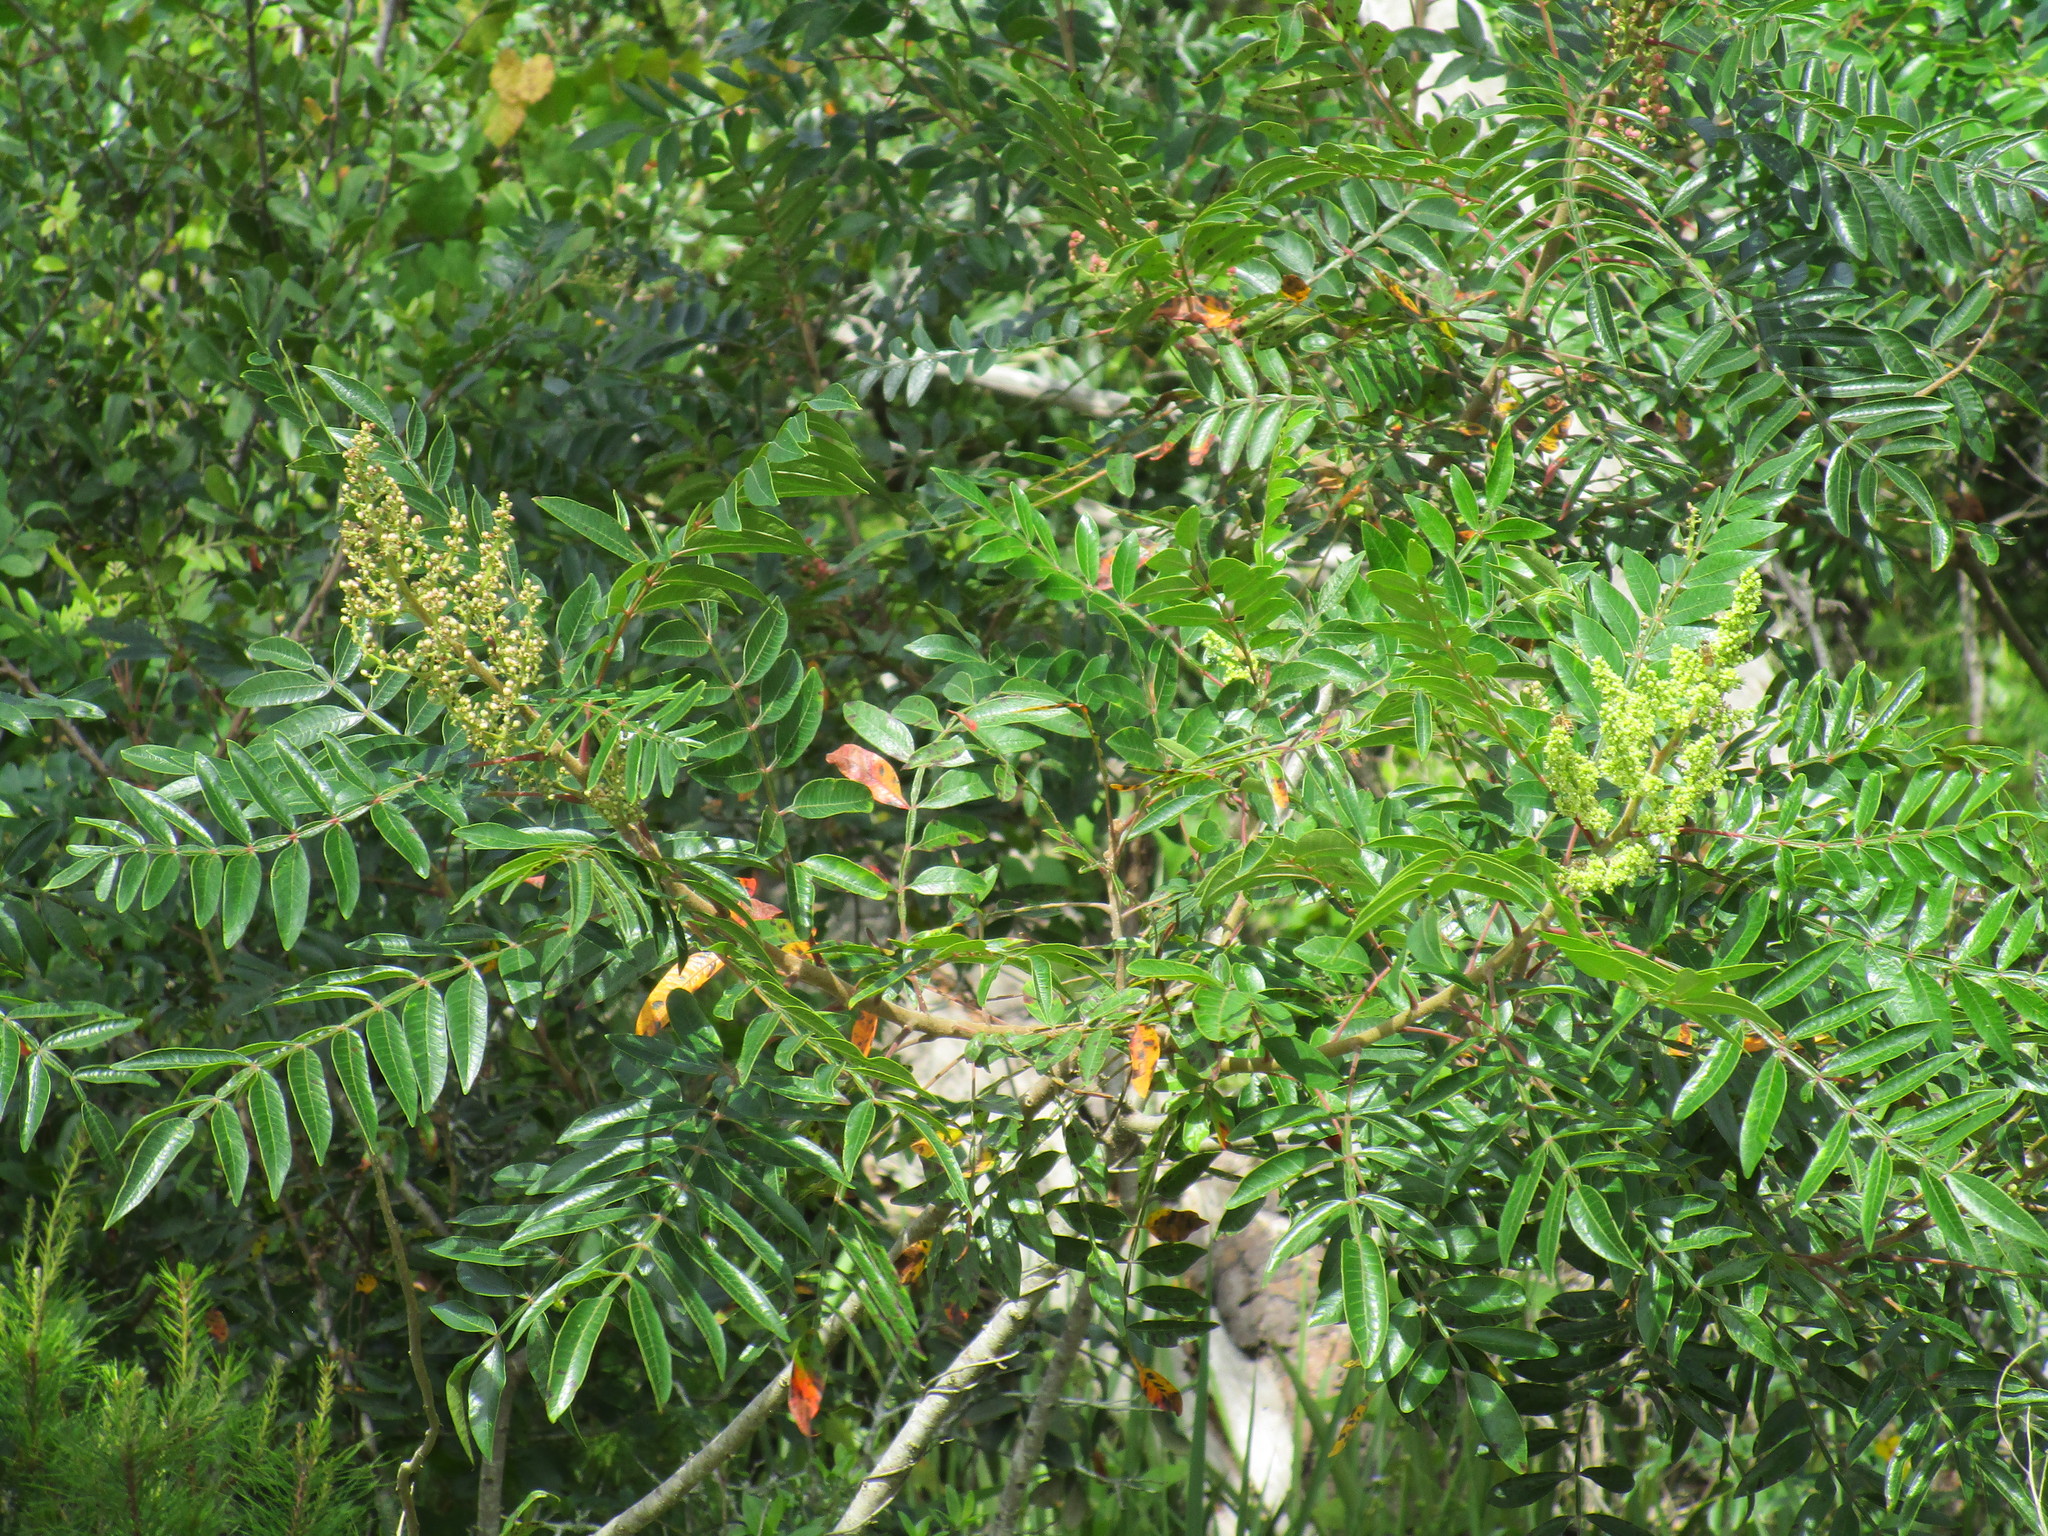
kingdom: Plantae
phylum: Tracheophyta
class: Magnoliopsida
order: Sapindales
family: Anacardiaceae
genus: Rhus
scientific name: Rhus copallina
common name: Shining sumac
